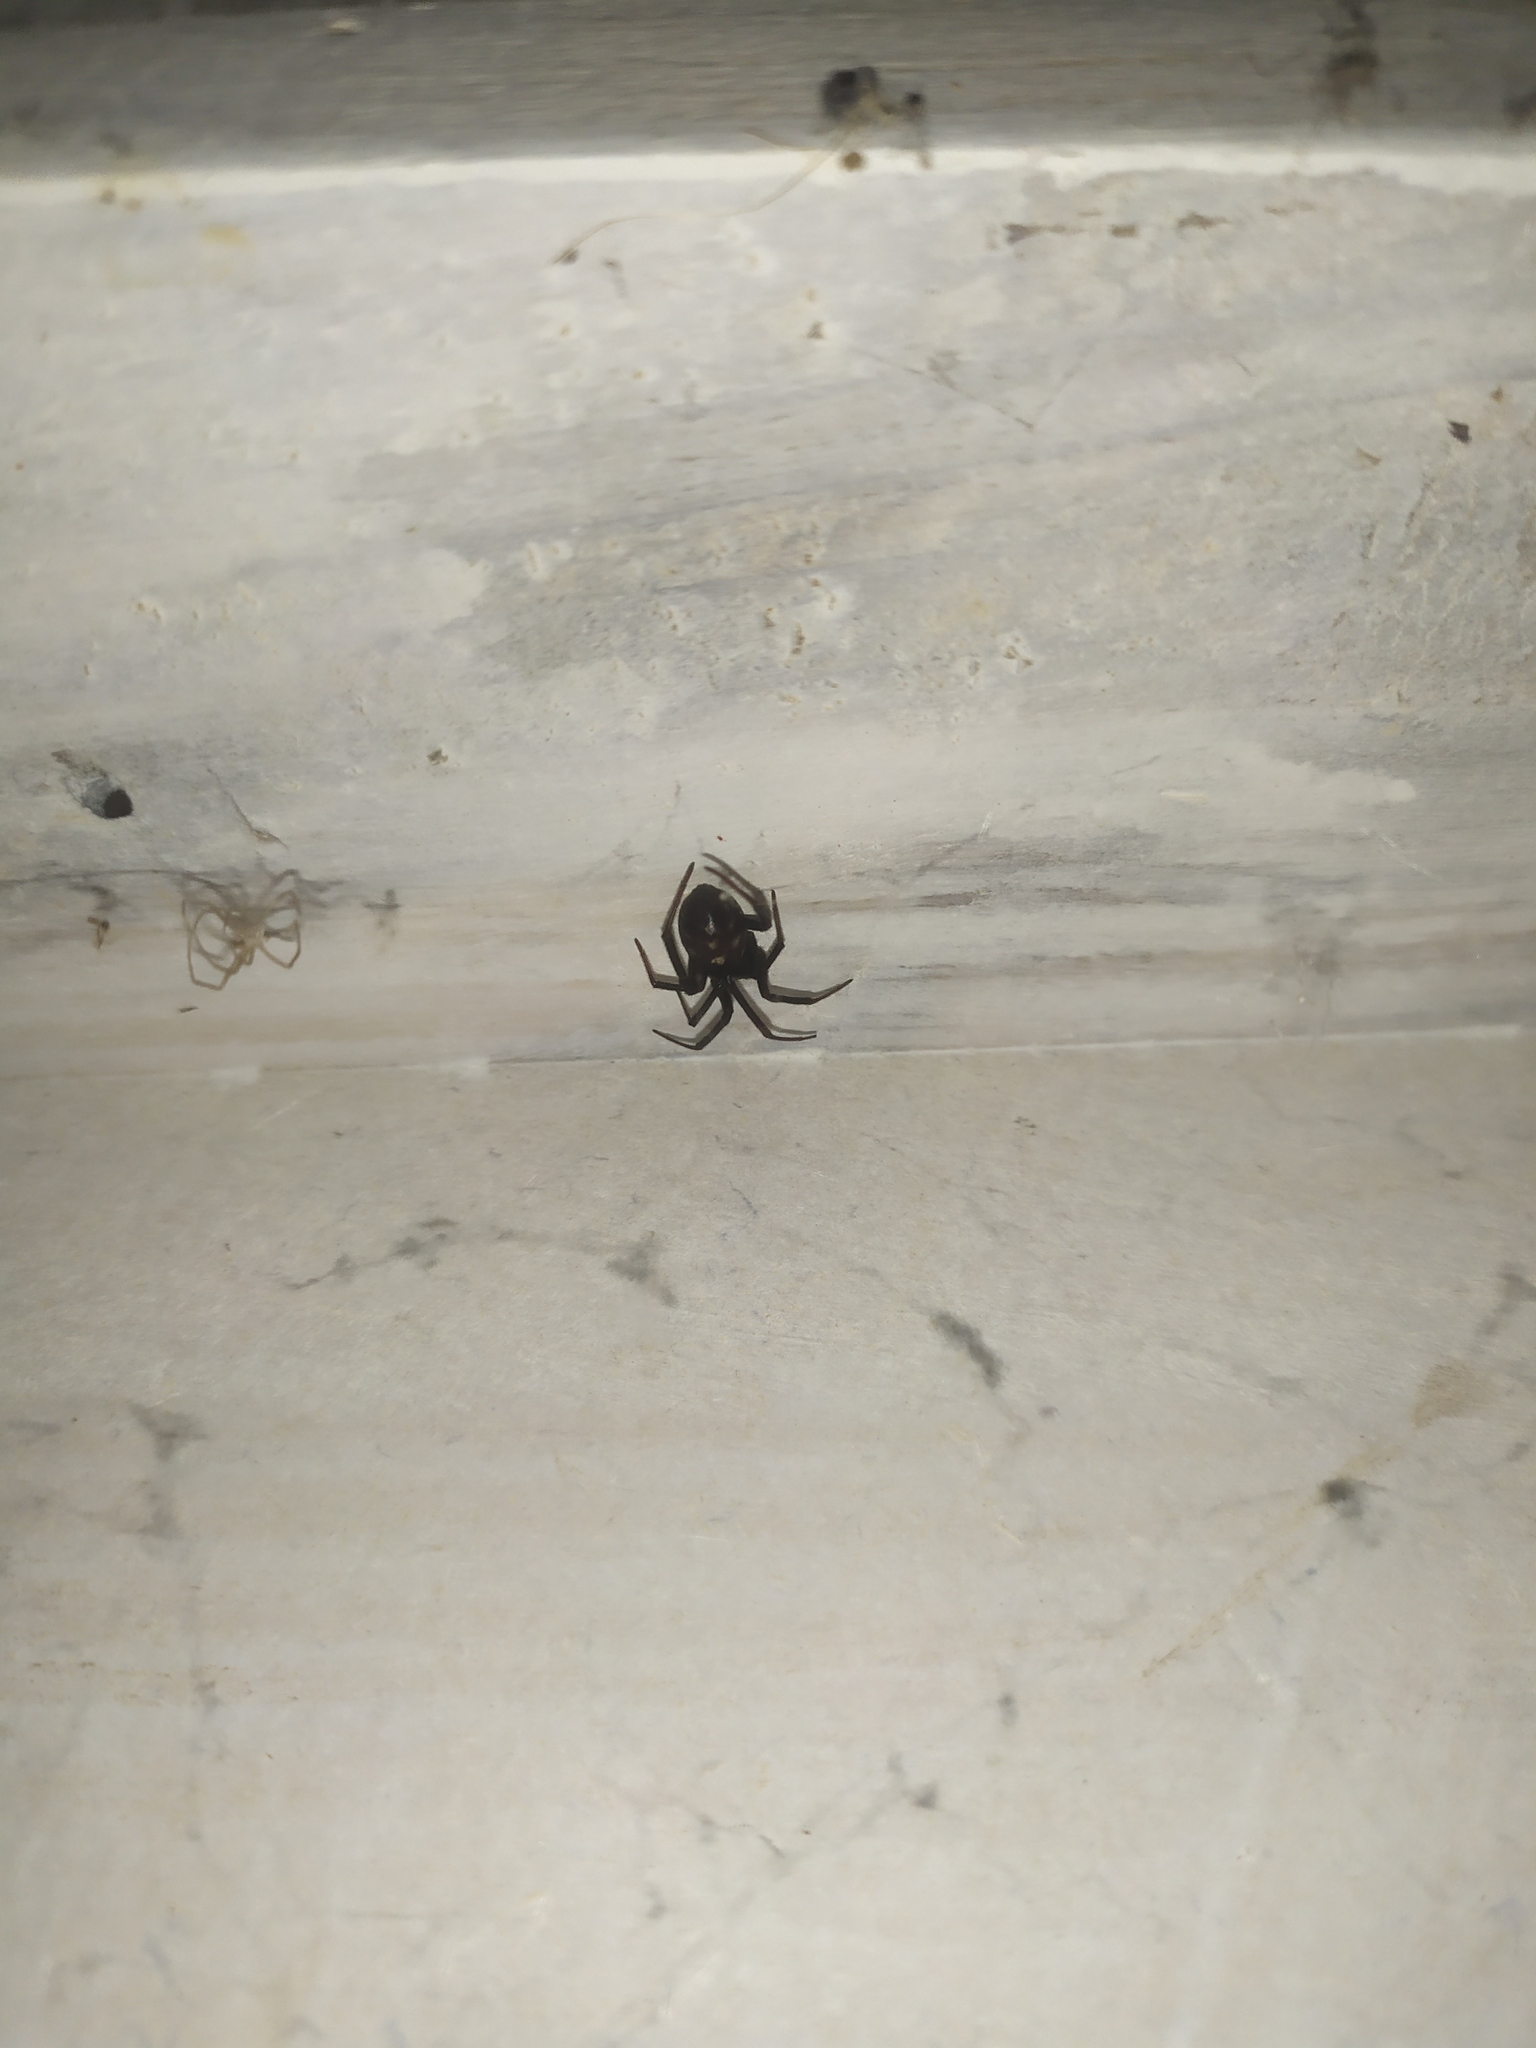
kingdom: Animalia
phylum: Arthropoda
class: Arachnida
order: Araneae
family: Theridiidae
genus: Steatoda
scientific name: Steatoda grossa
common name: False black widow
